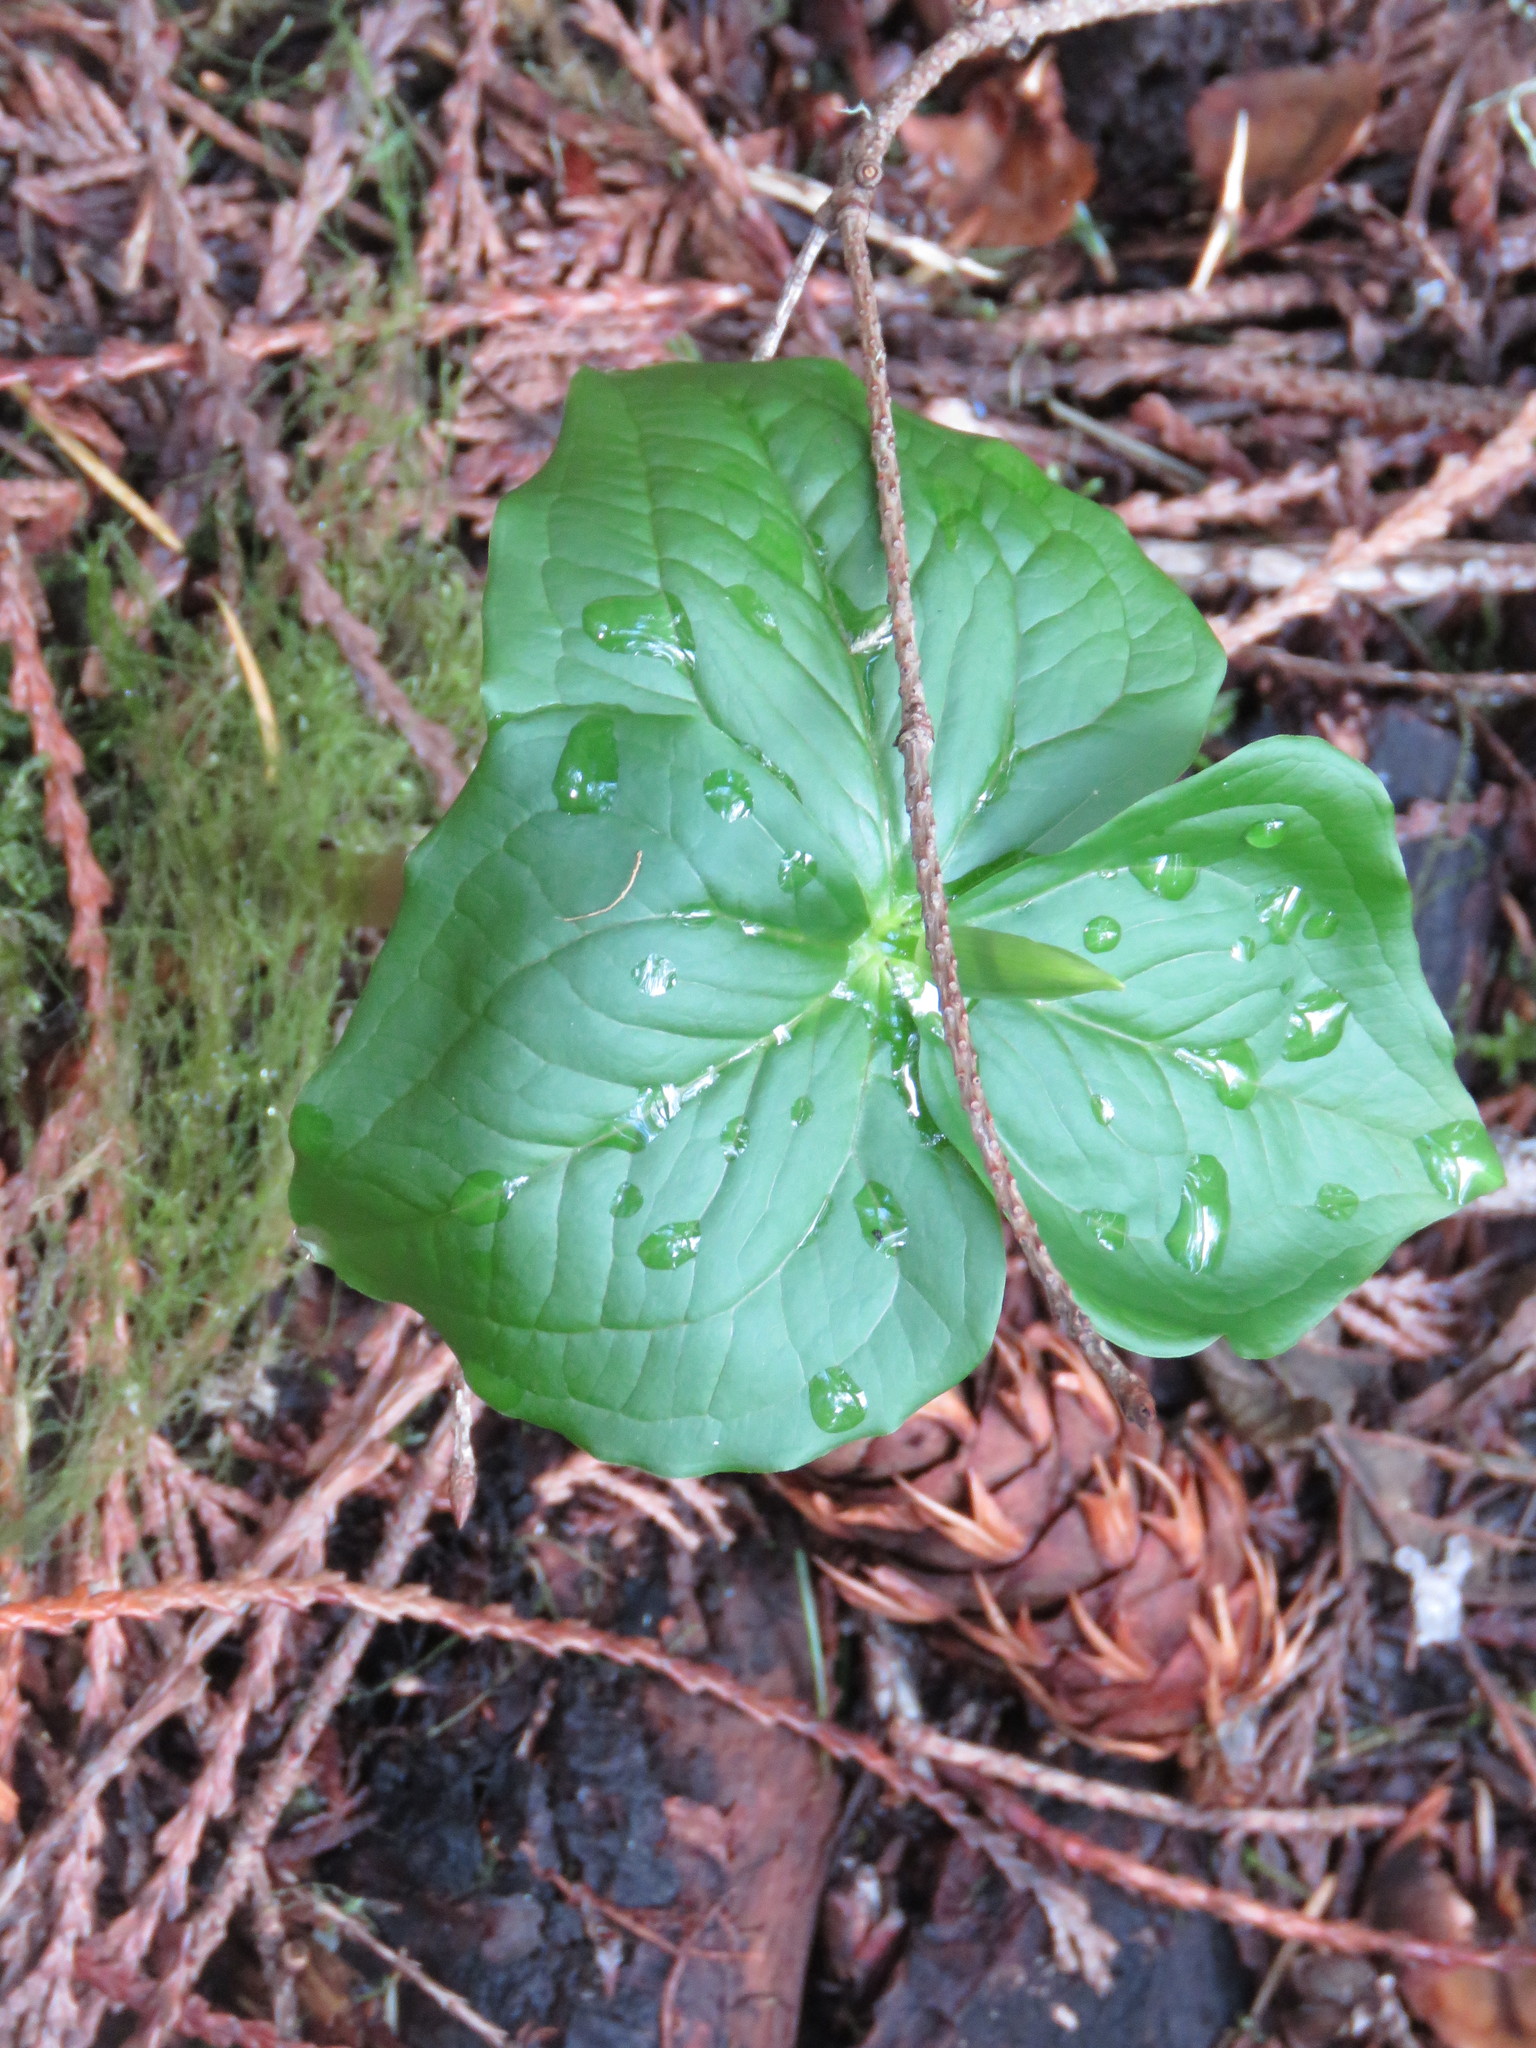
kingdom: Plantae
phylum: Tracheophyta
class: Liliopsida
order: Liliales
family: Melanthiaceae
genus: Trillium
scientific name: Trillium ovatum
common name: Pacific trillium
